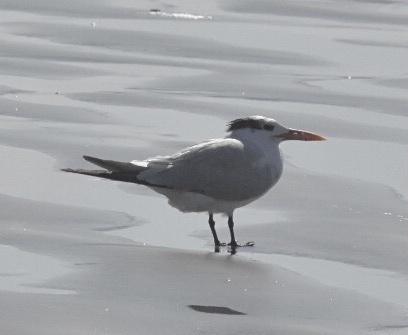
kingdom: Animalia
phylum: Chordata
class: Aves
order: Charadriiformes
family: Laridae
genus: Thalasseus
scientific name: Thalasseus maximus
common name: Royal tern
